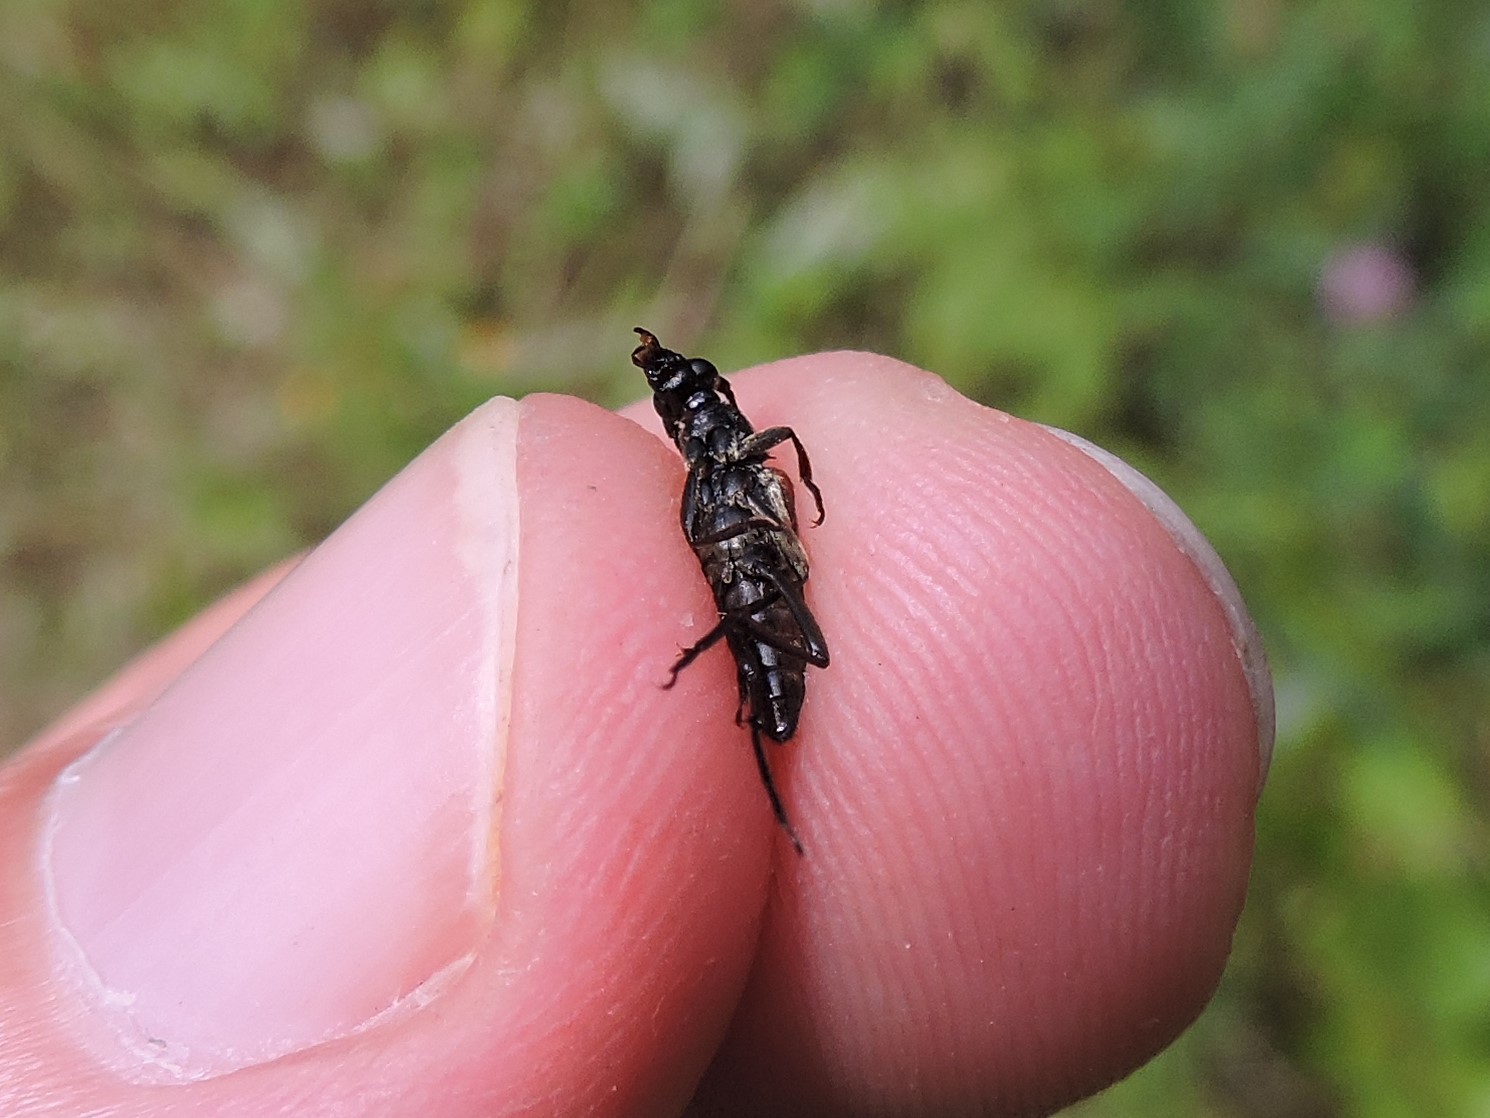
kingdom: Animalia
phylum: Arthropoda
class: Insecta
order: Coleoptera
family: Cerambycidae
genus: Stenurella
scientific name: Stenurella melanura
